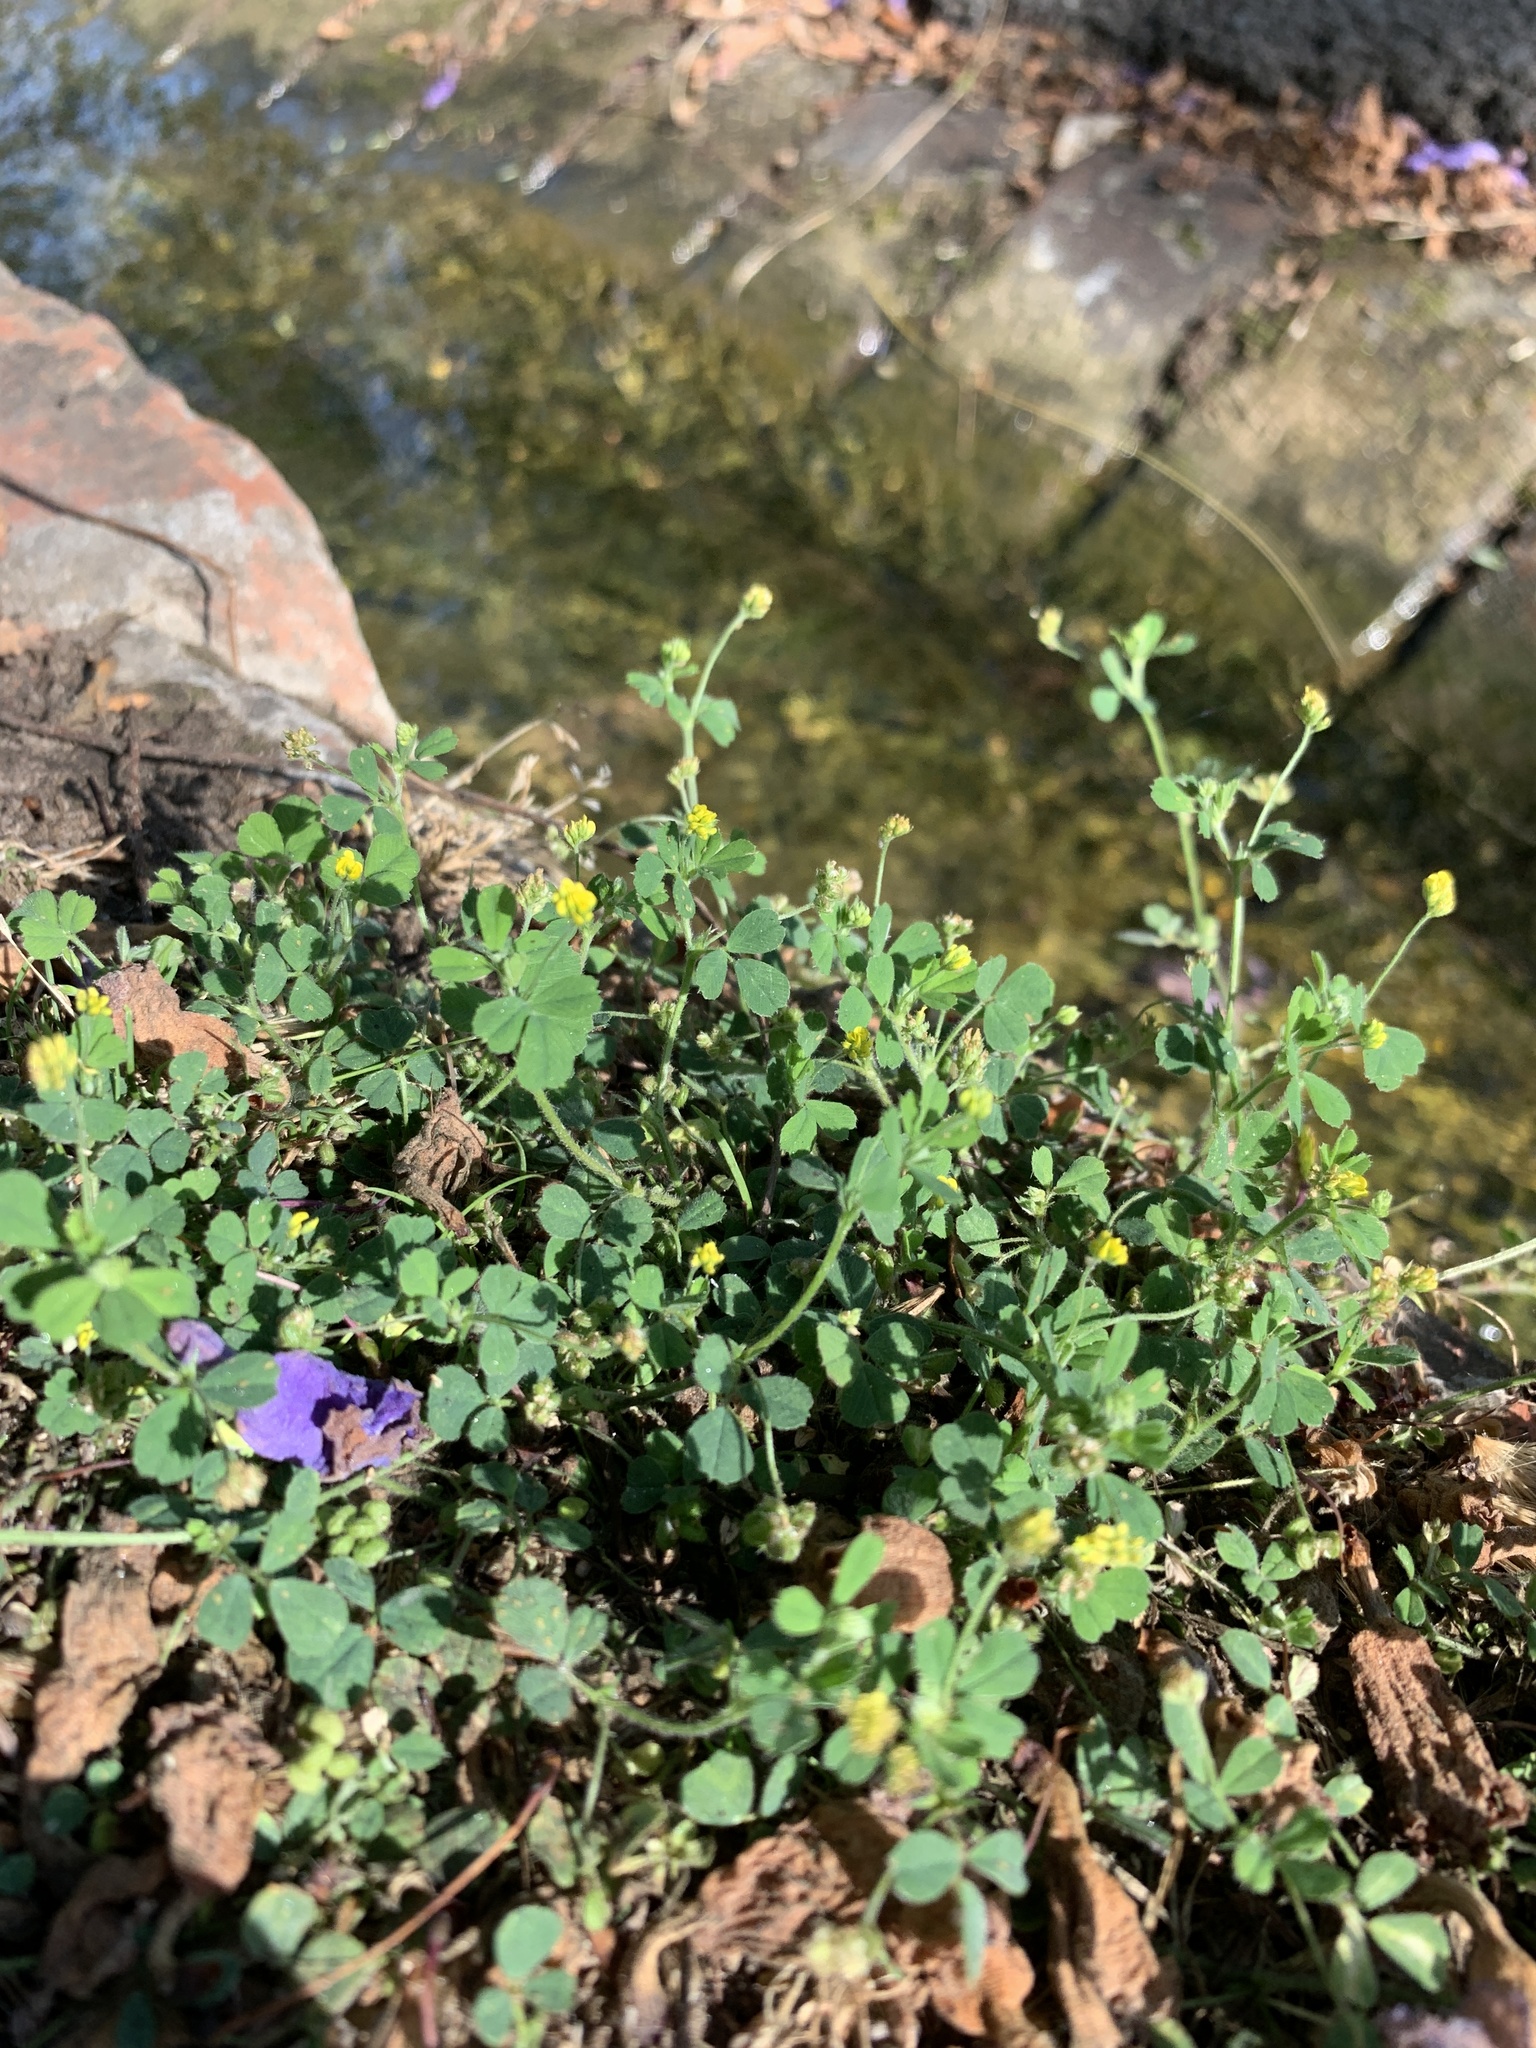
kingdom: Plantae
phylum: Tracheophyta
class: Magnoliopsida
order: Fabales
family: Fabaceae
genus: Medicago
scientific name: Medicago lupulina
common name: Black medick
